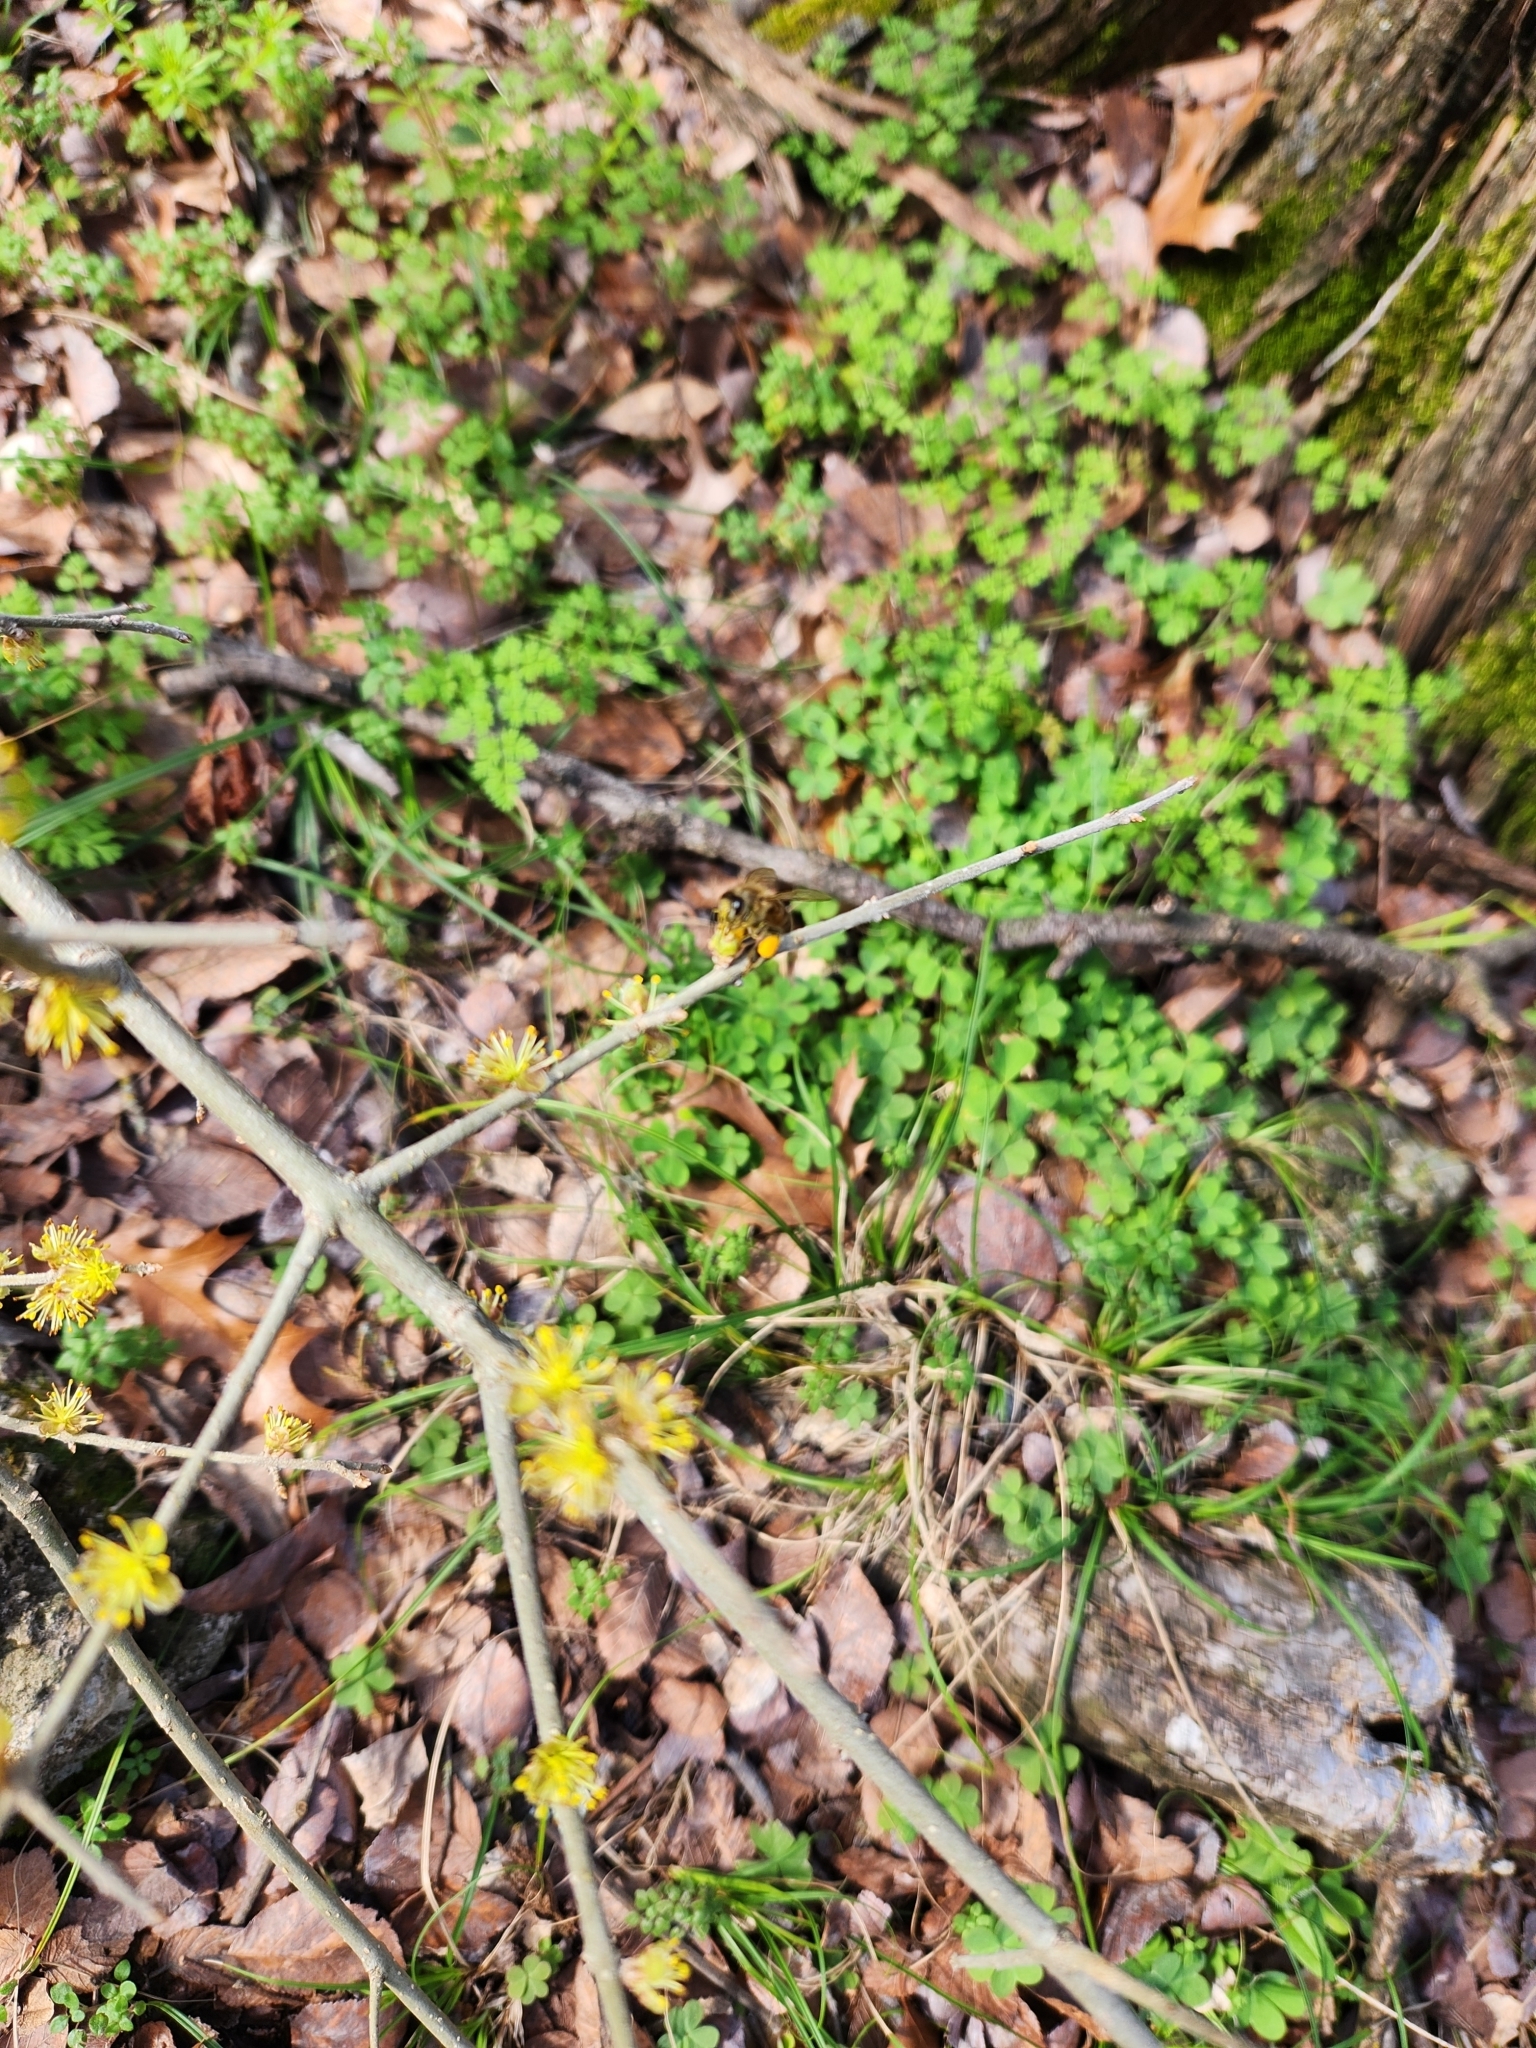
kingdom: Animalia
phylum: Arthropoda
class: Insecta
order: Hymenoptera
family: Apidae
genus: Apis
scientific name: Apis mellifera
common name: Honey bee
